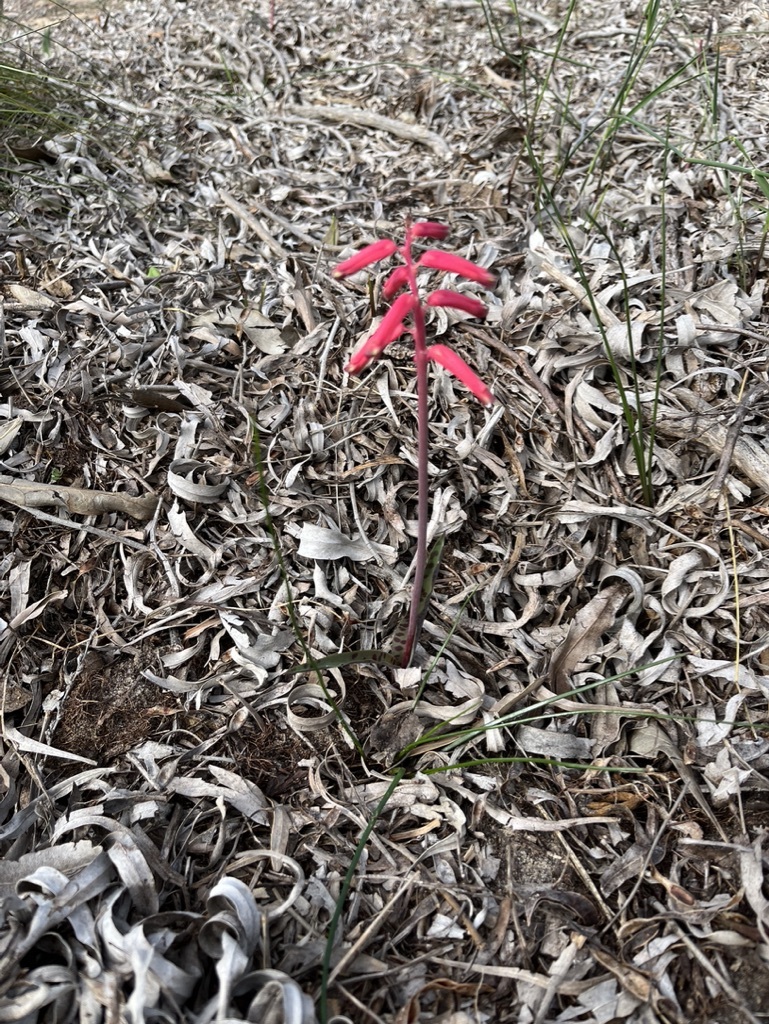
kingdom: Plantae
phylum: Tracheophyta
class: Liliopsida
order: Asparagales
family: Asparagaceae
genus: Lachenalia
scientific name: Lachenalia punctata
